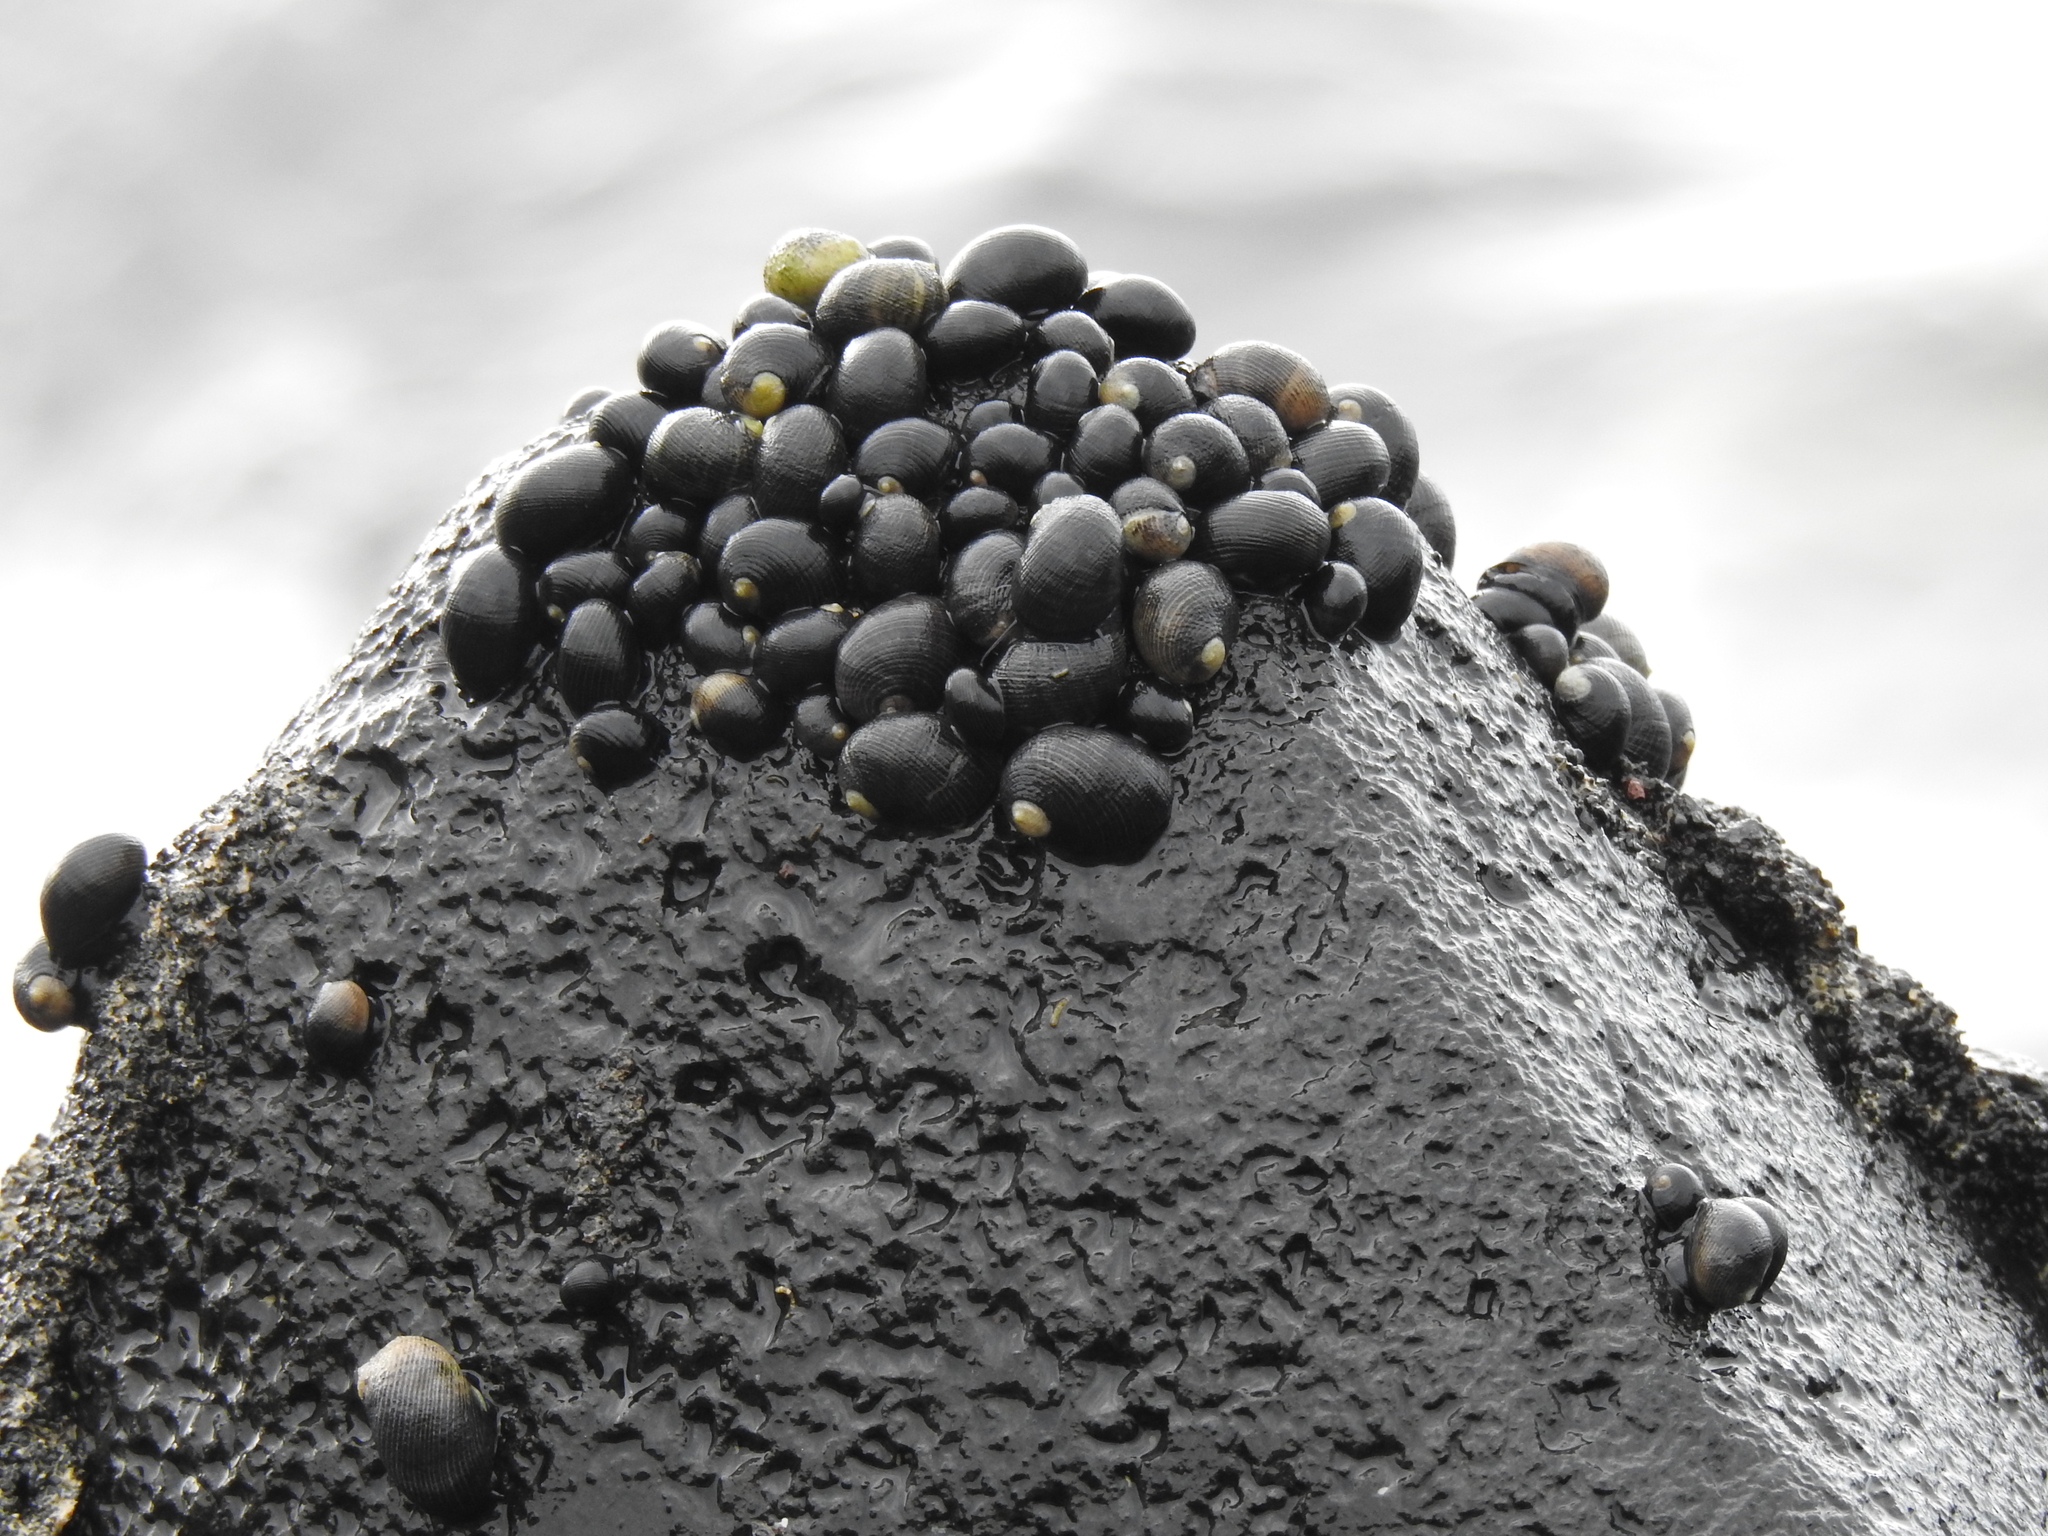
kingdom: Animalia
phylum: Mollusca
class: Gastropoda
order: Cycloneritida
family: Neritidae
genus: Nerita
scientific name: Nerita picea
